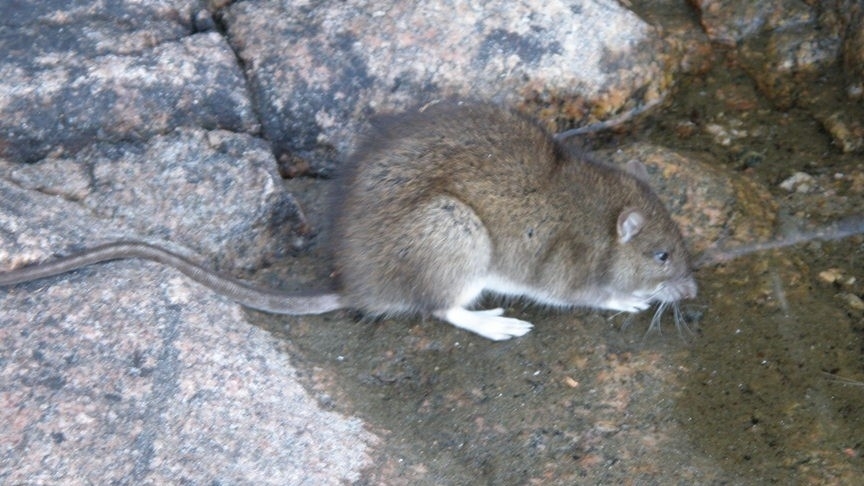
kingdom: Animalia
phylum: Chordata
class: Mammalia
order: Rodentia
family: Muridae
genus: Rattus
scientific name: Rattus norvegicus
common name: Brown rat
